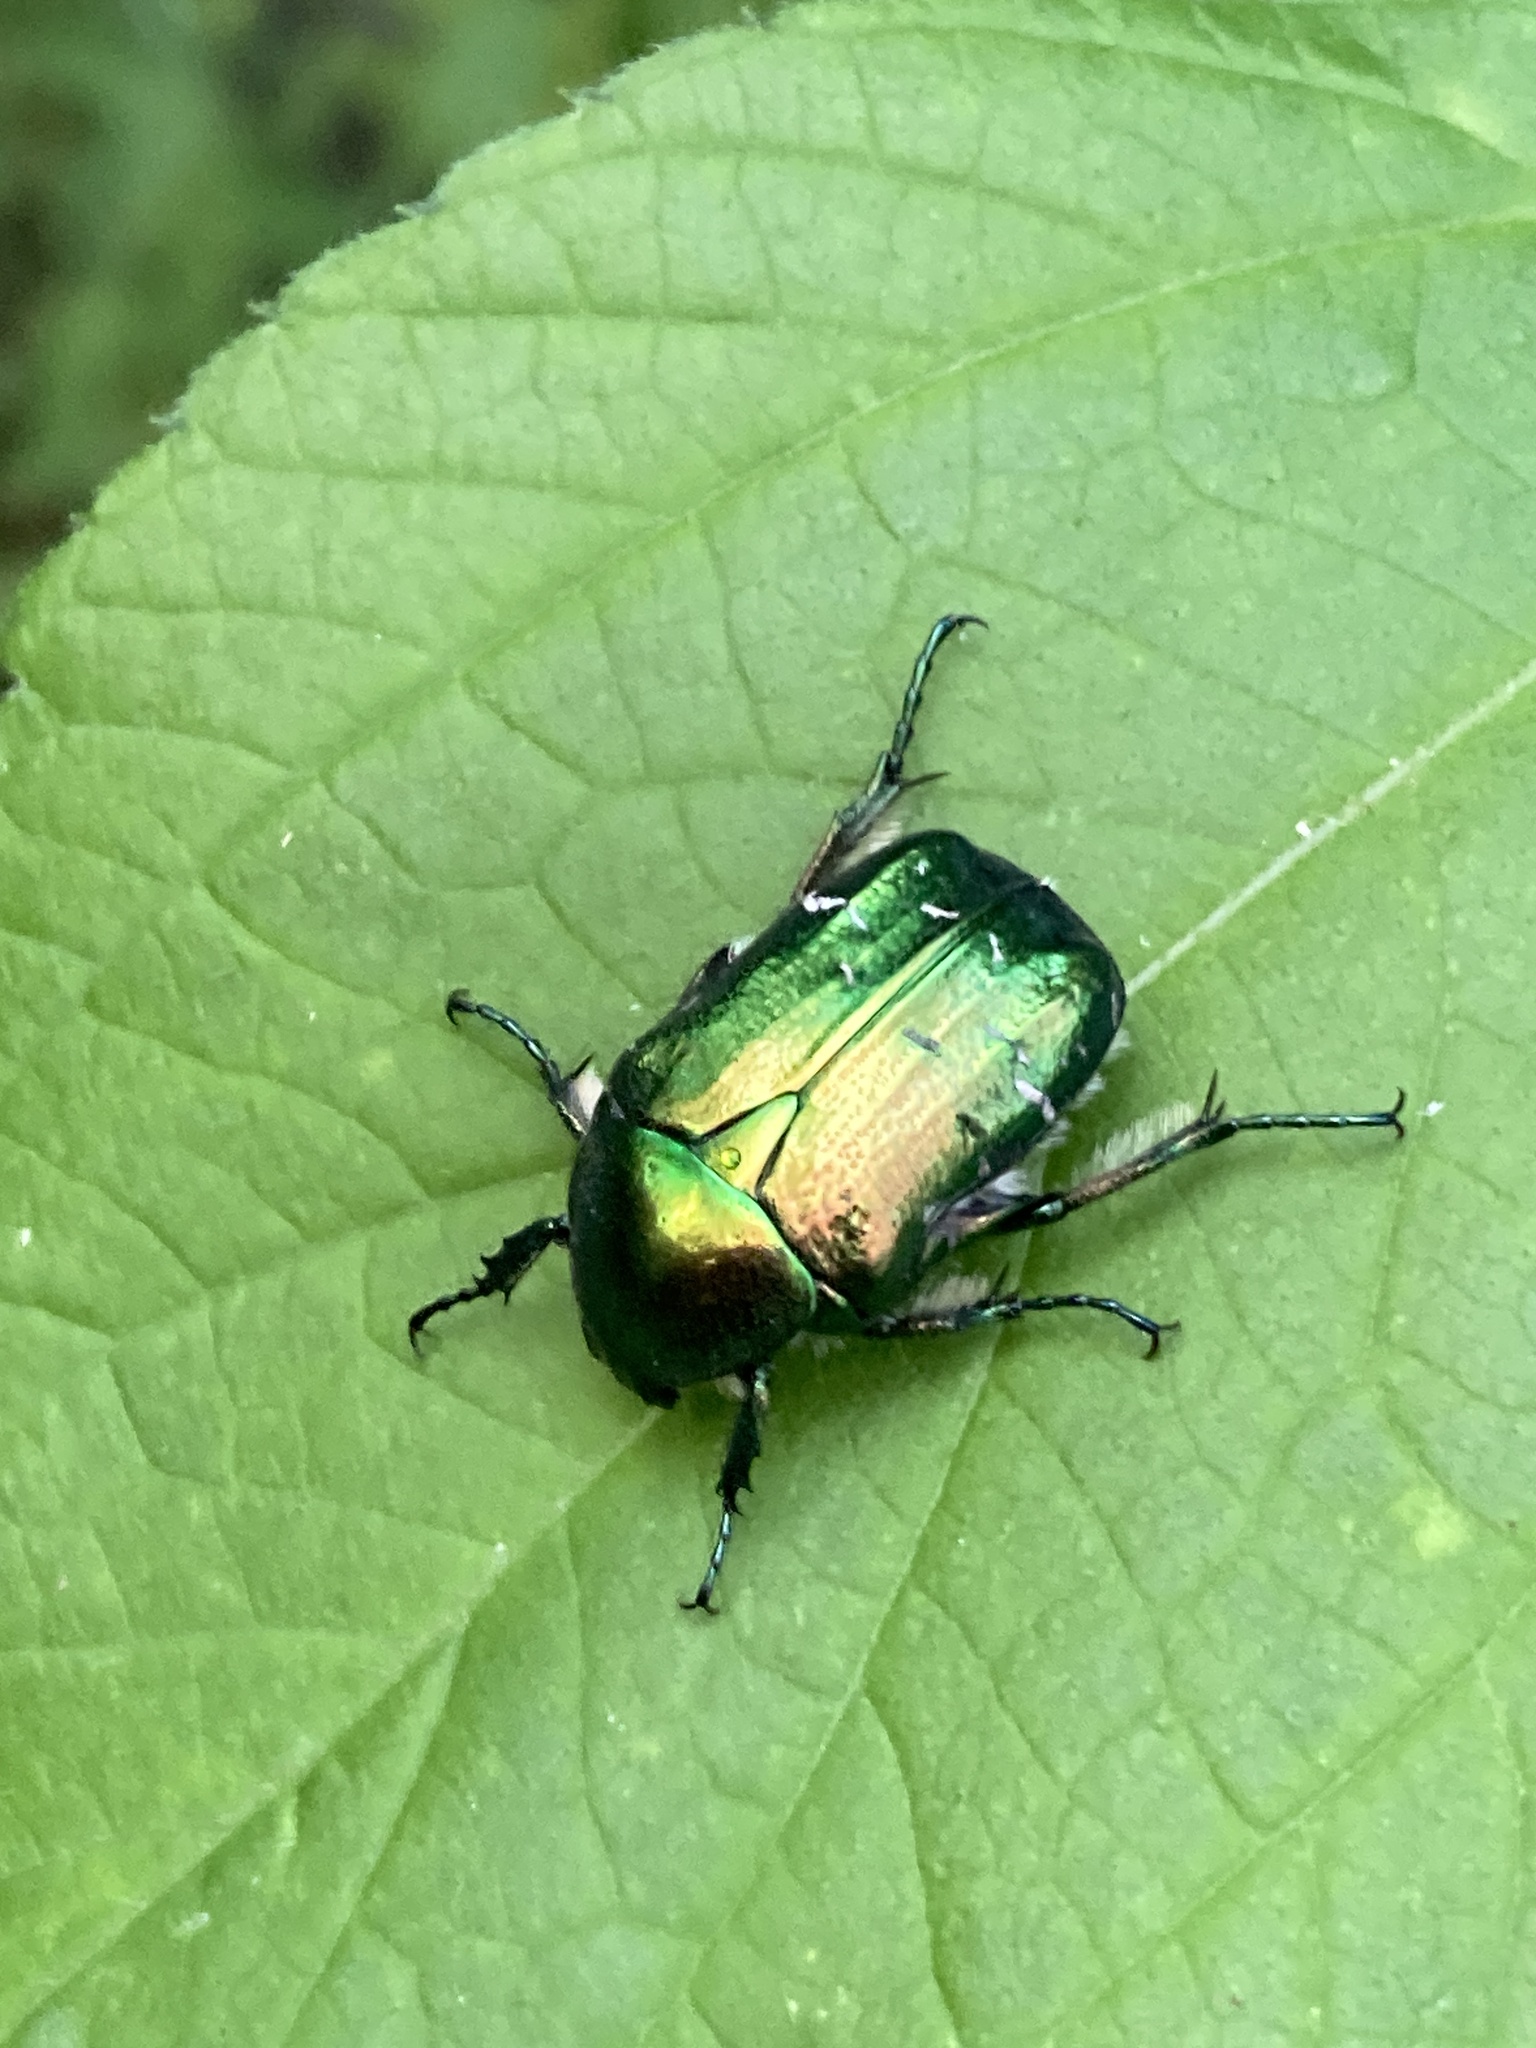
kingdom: Animalia
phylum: Arthropoda
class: Insecta
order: Coleoptera
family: Scarabaeidae
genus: Cetonia
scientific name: Cetonia aurata
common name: Rose chafer
